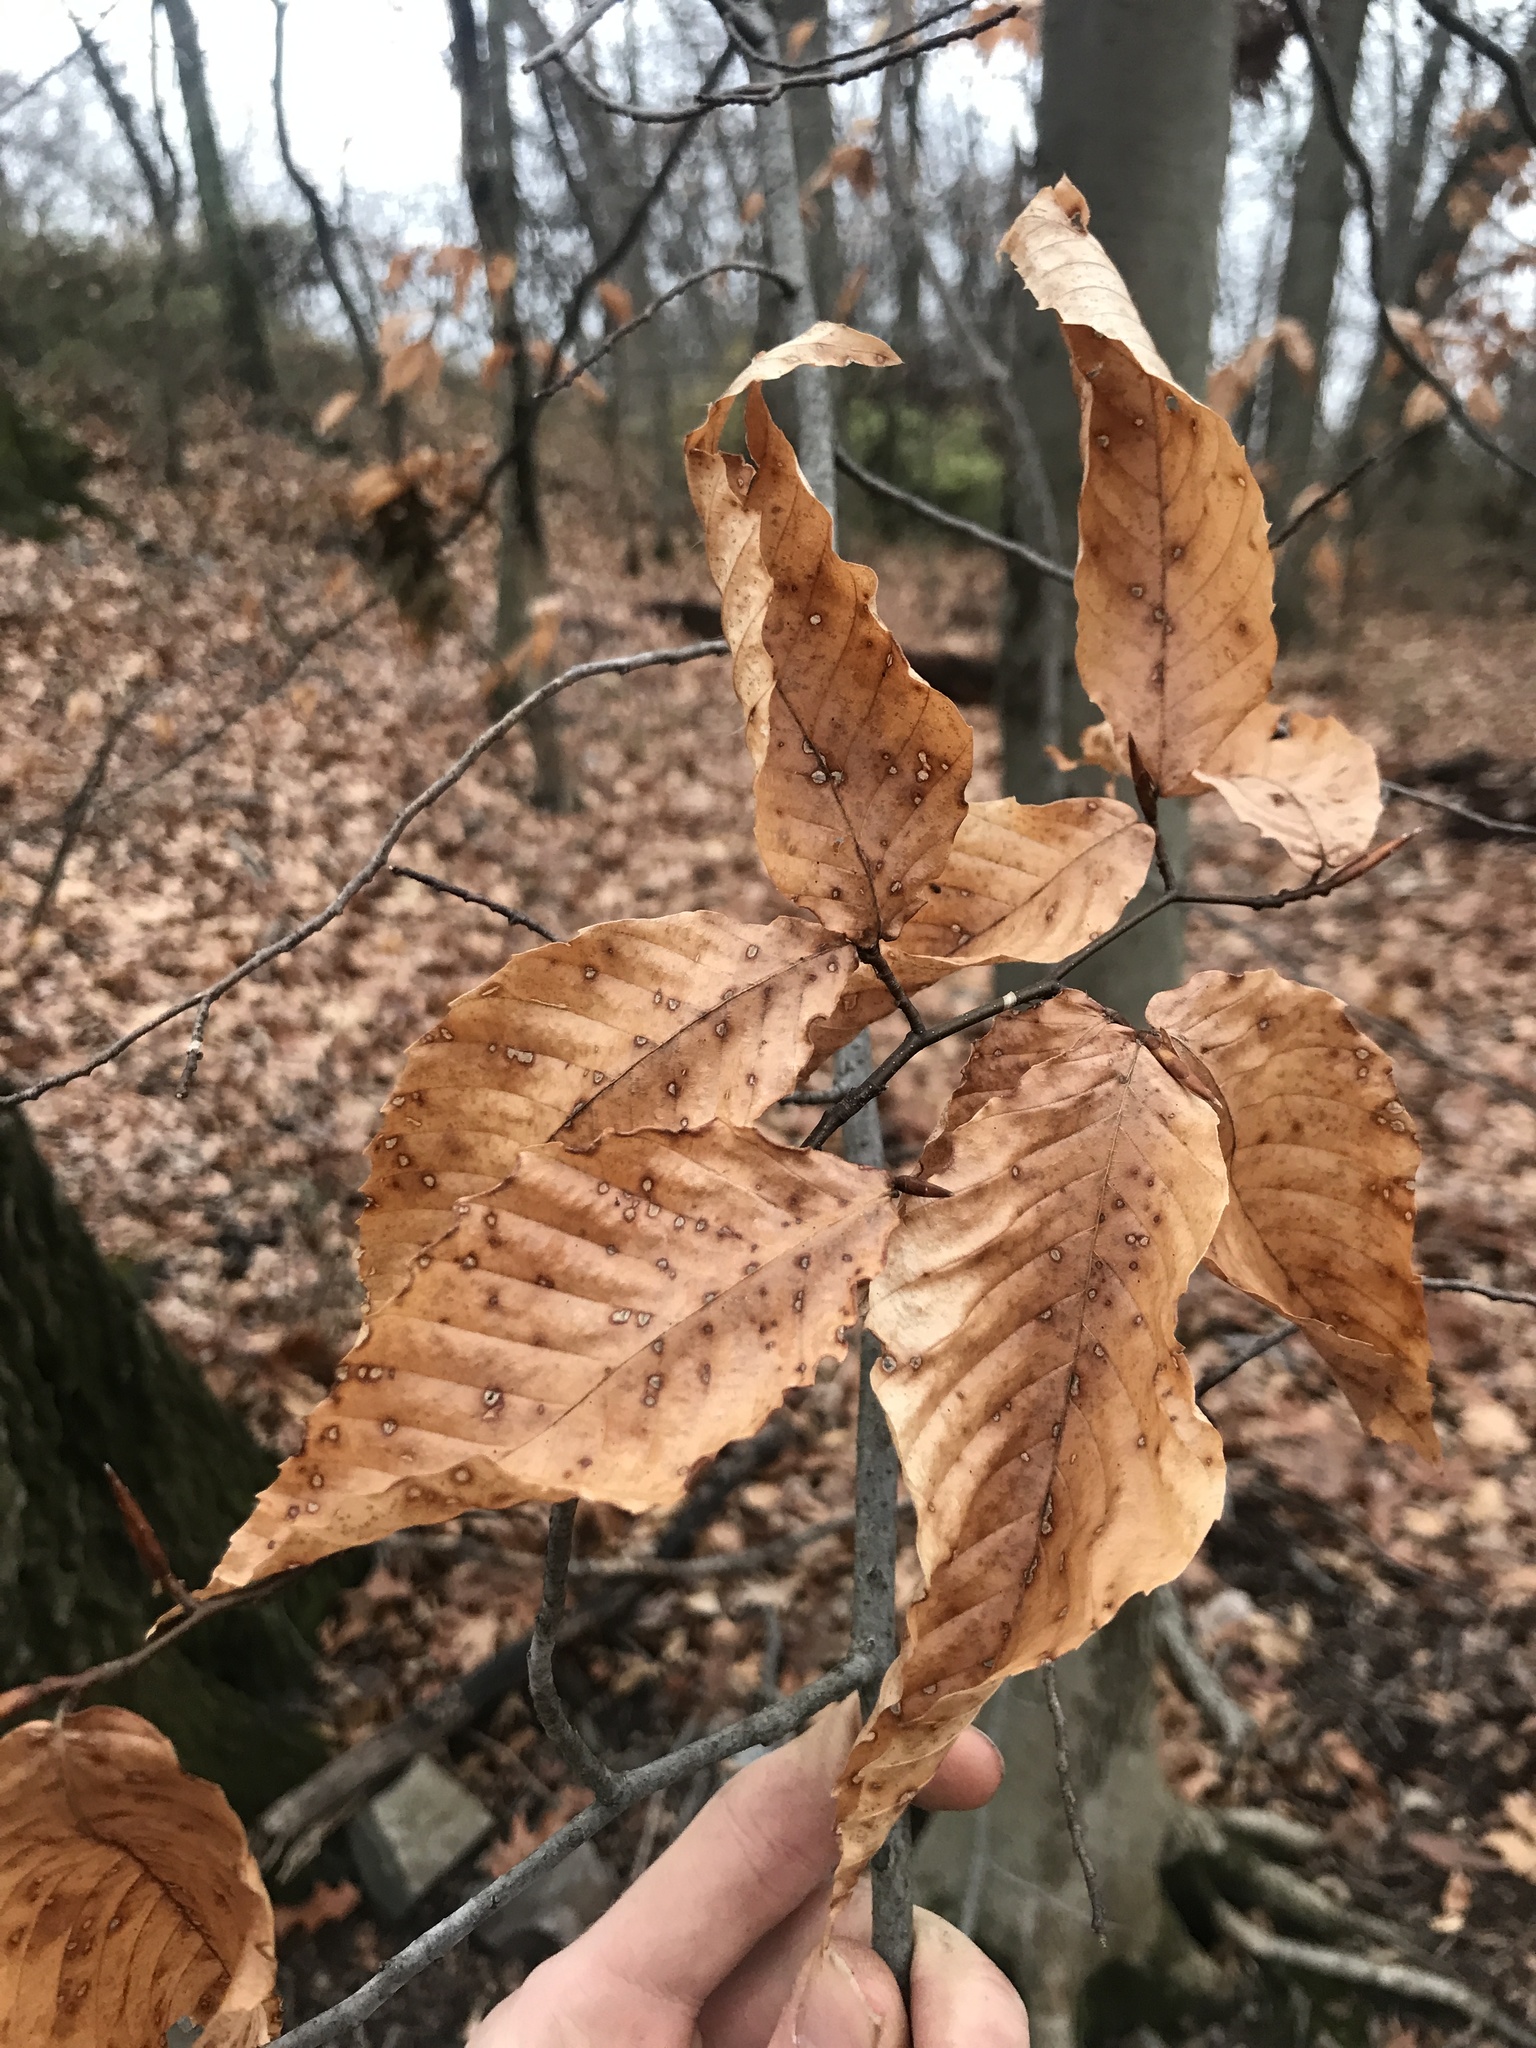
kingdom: Plantae
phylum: Tracheophyta
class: Magnoliopsida
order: Fagales
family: Fagaceae
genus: Fagus
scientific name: Fagus grandifolia
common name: American beech
